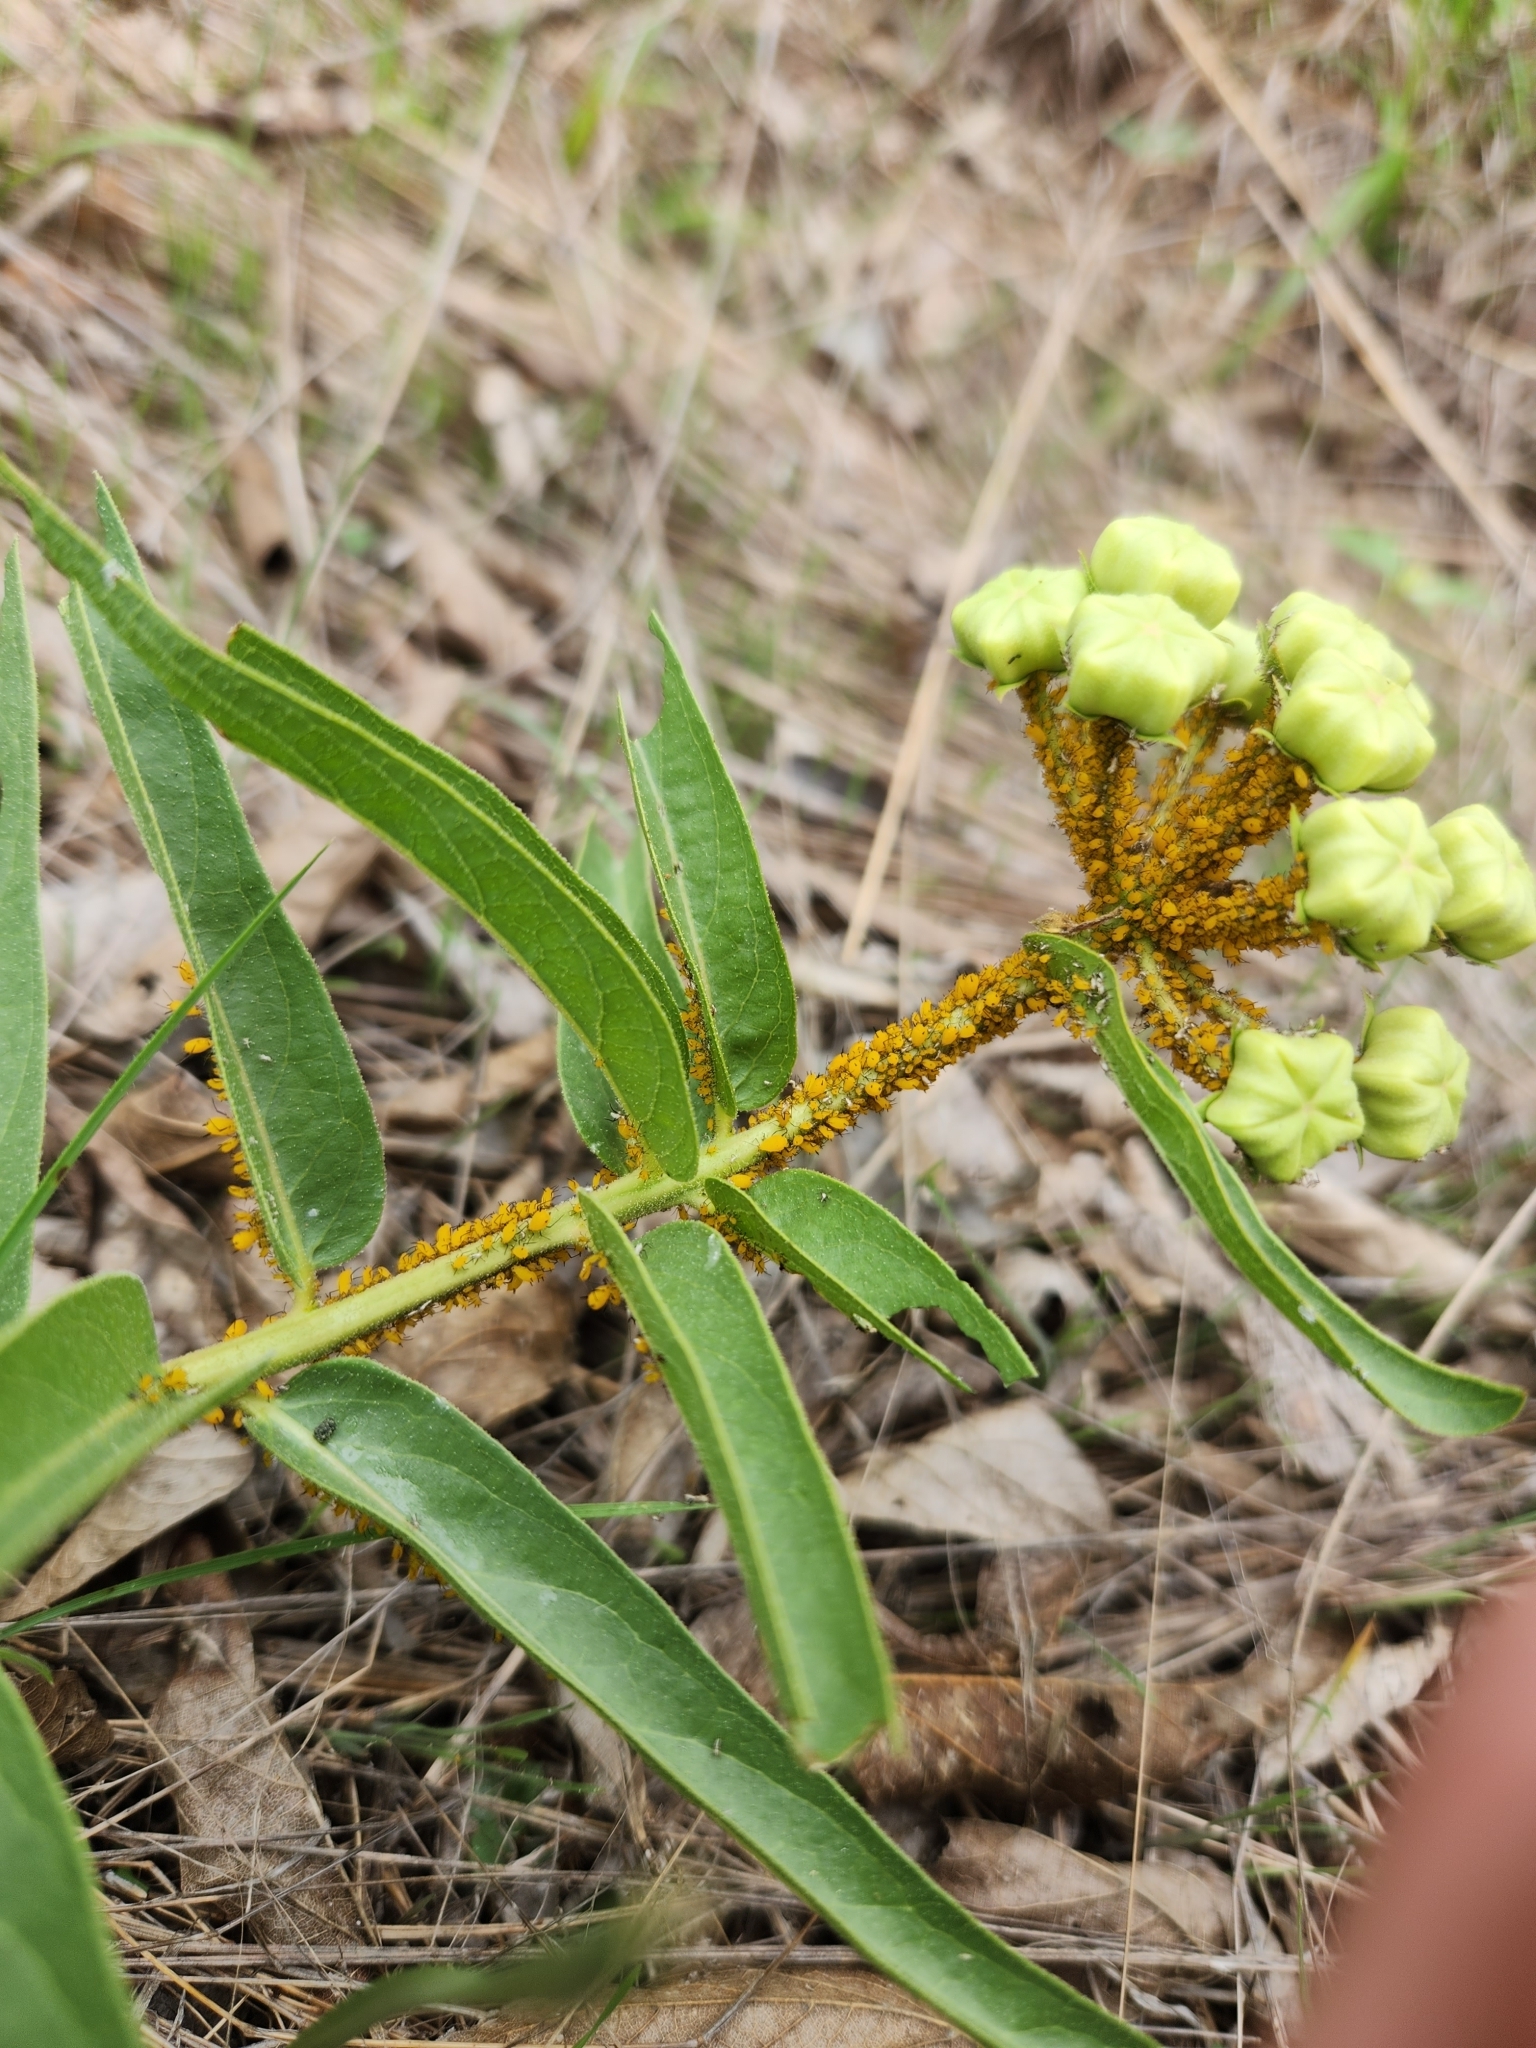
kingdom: Animalia
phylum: Arthropoda
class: Insecta
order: Hemiptera
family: Aphididae
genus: Aphis
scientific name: Aphis nerii
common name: Oleander aphid
